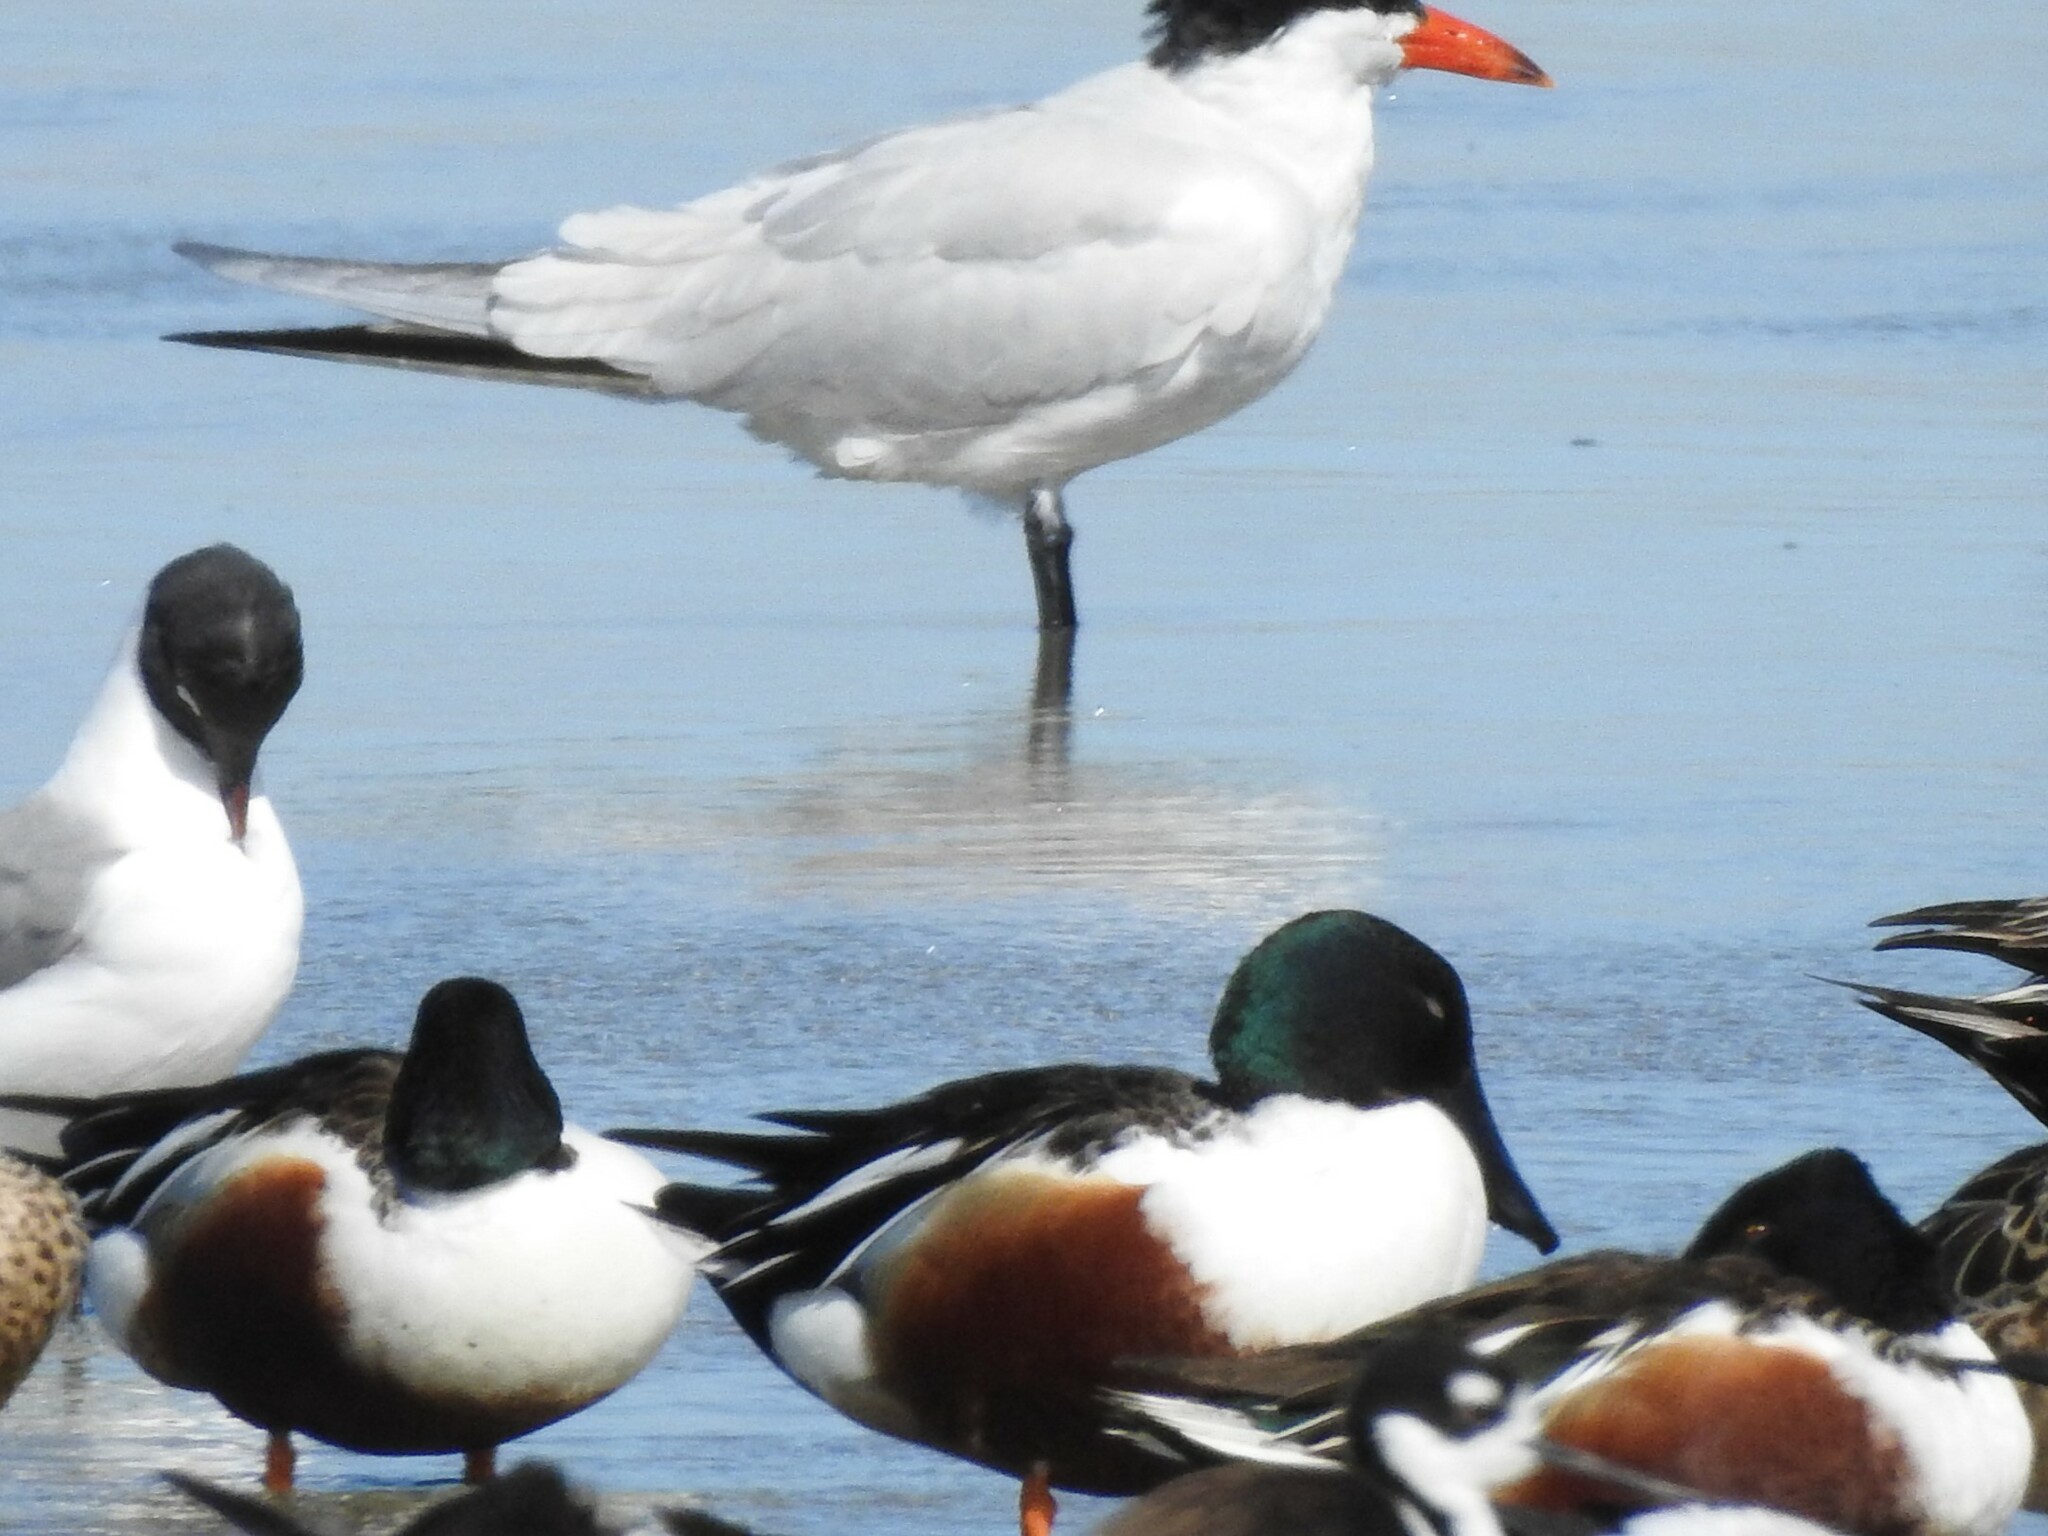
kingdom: Animalia
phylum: Chordata
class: Aves
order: Anseriformes
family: Anatidae
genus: Spatula
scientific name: Spatula clypeata
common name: Northern shoveler
